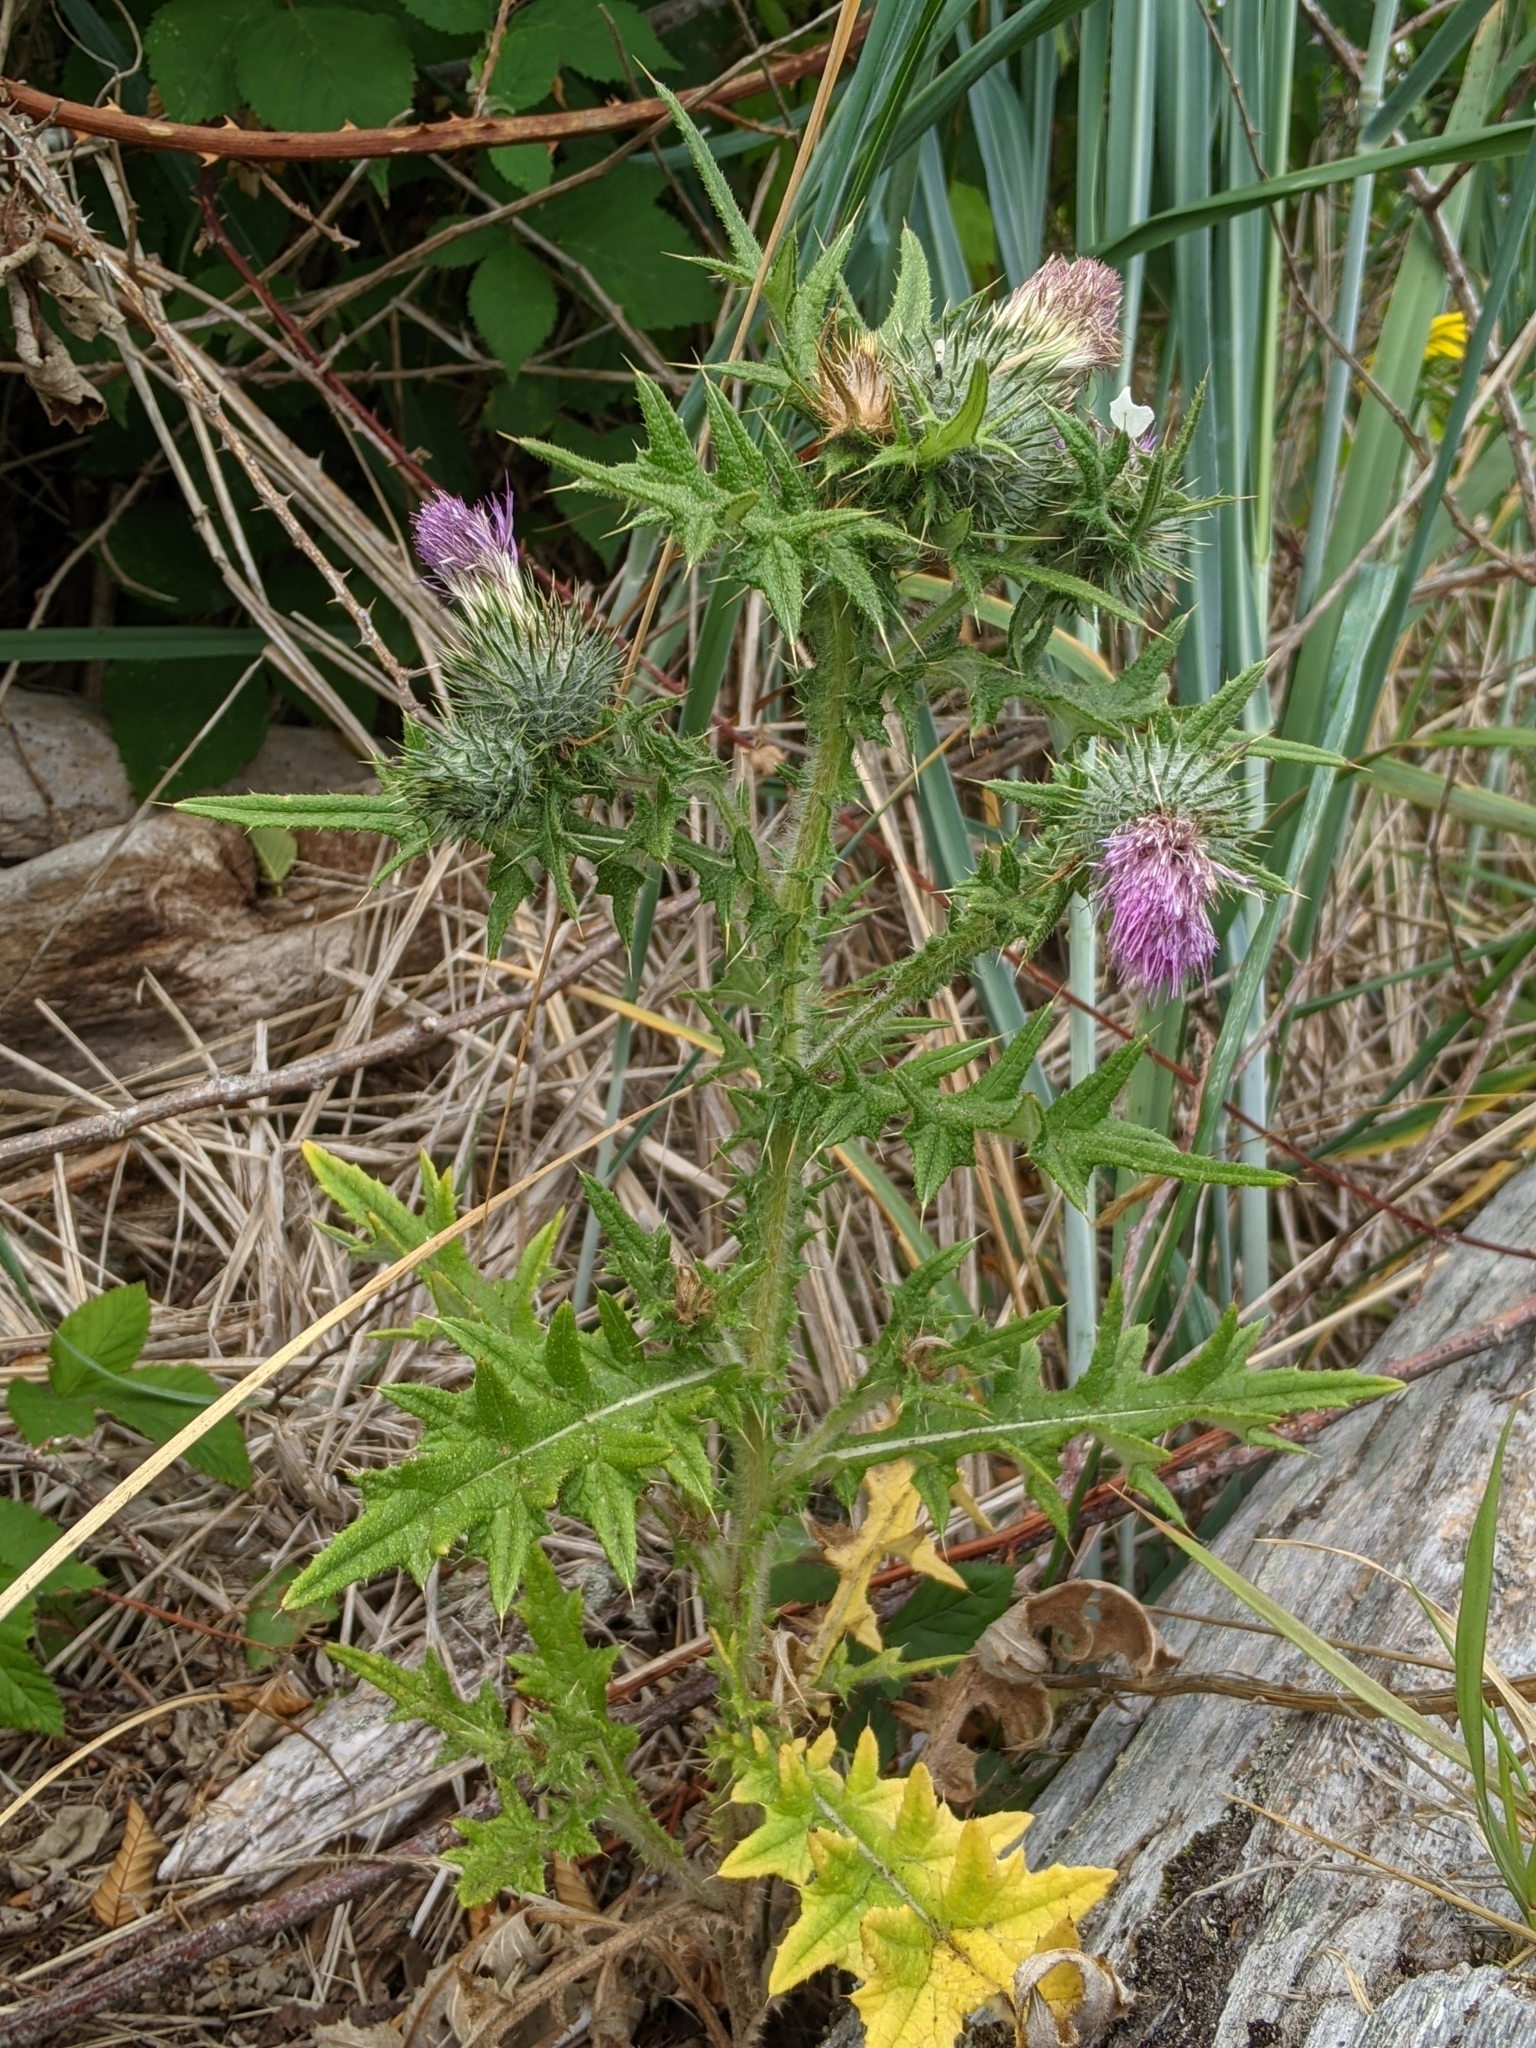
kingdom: Plantae
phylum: Tracheophyta
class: Magnoliopsida
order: Asterales
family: Asteraceae
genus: Cirsium
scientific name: Cirsium vulgare
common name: Bull thistle
